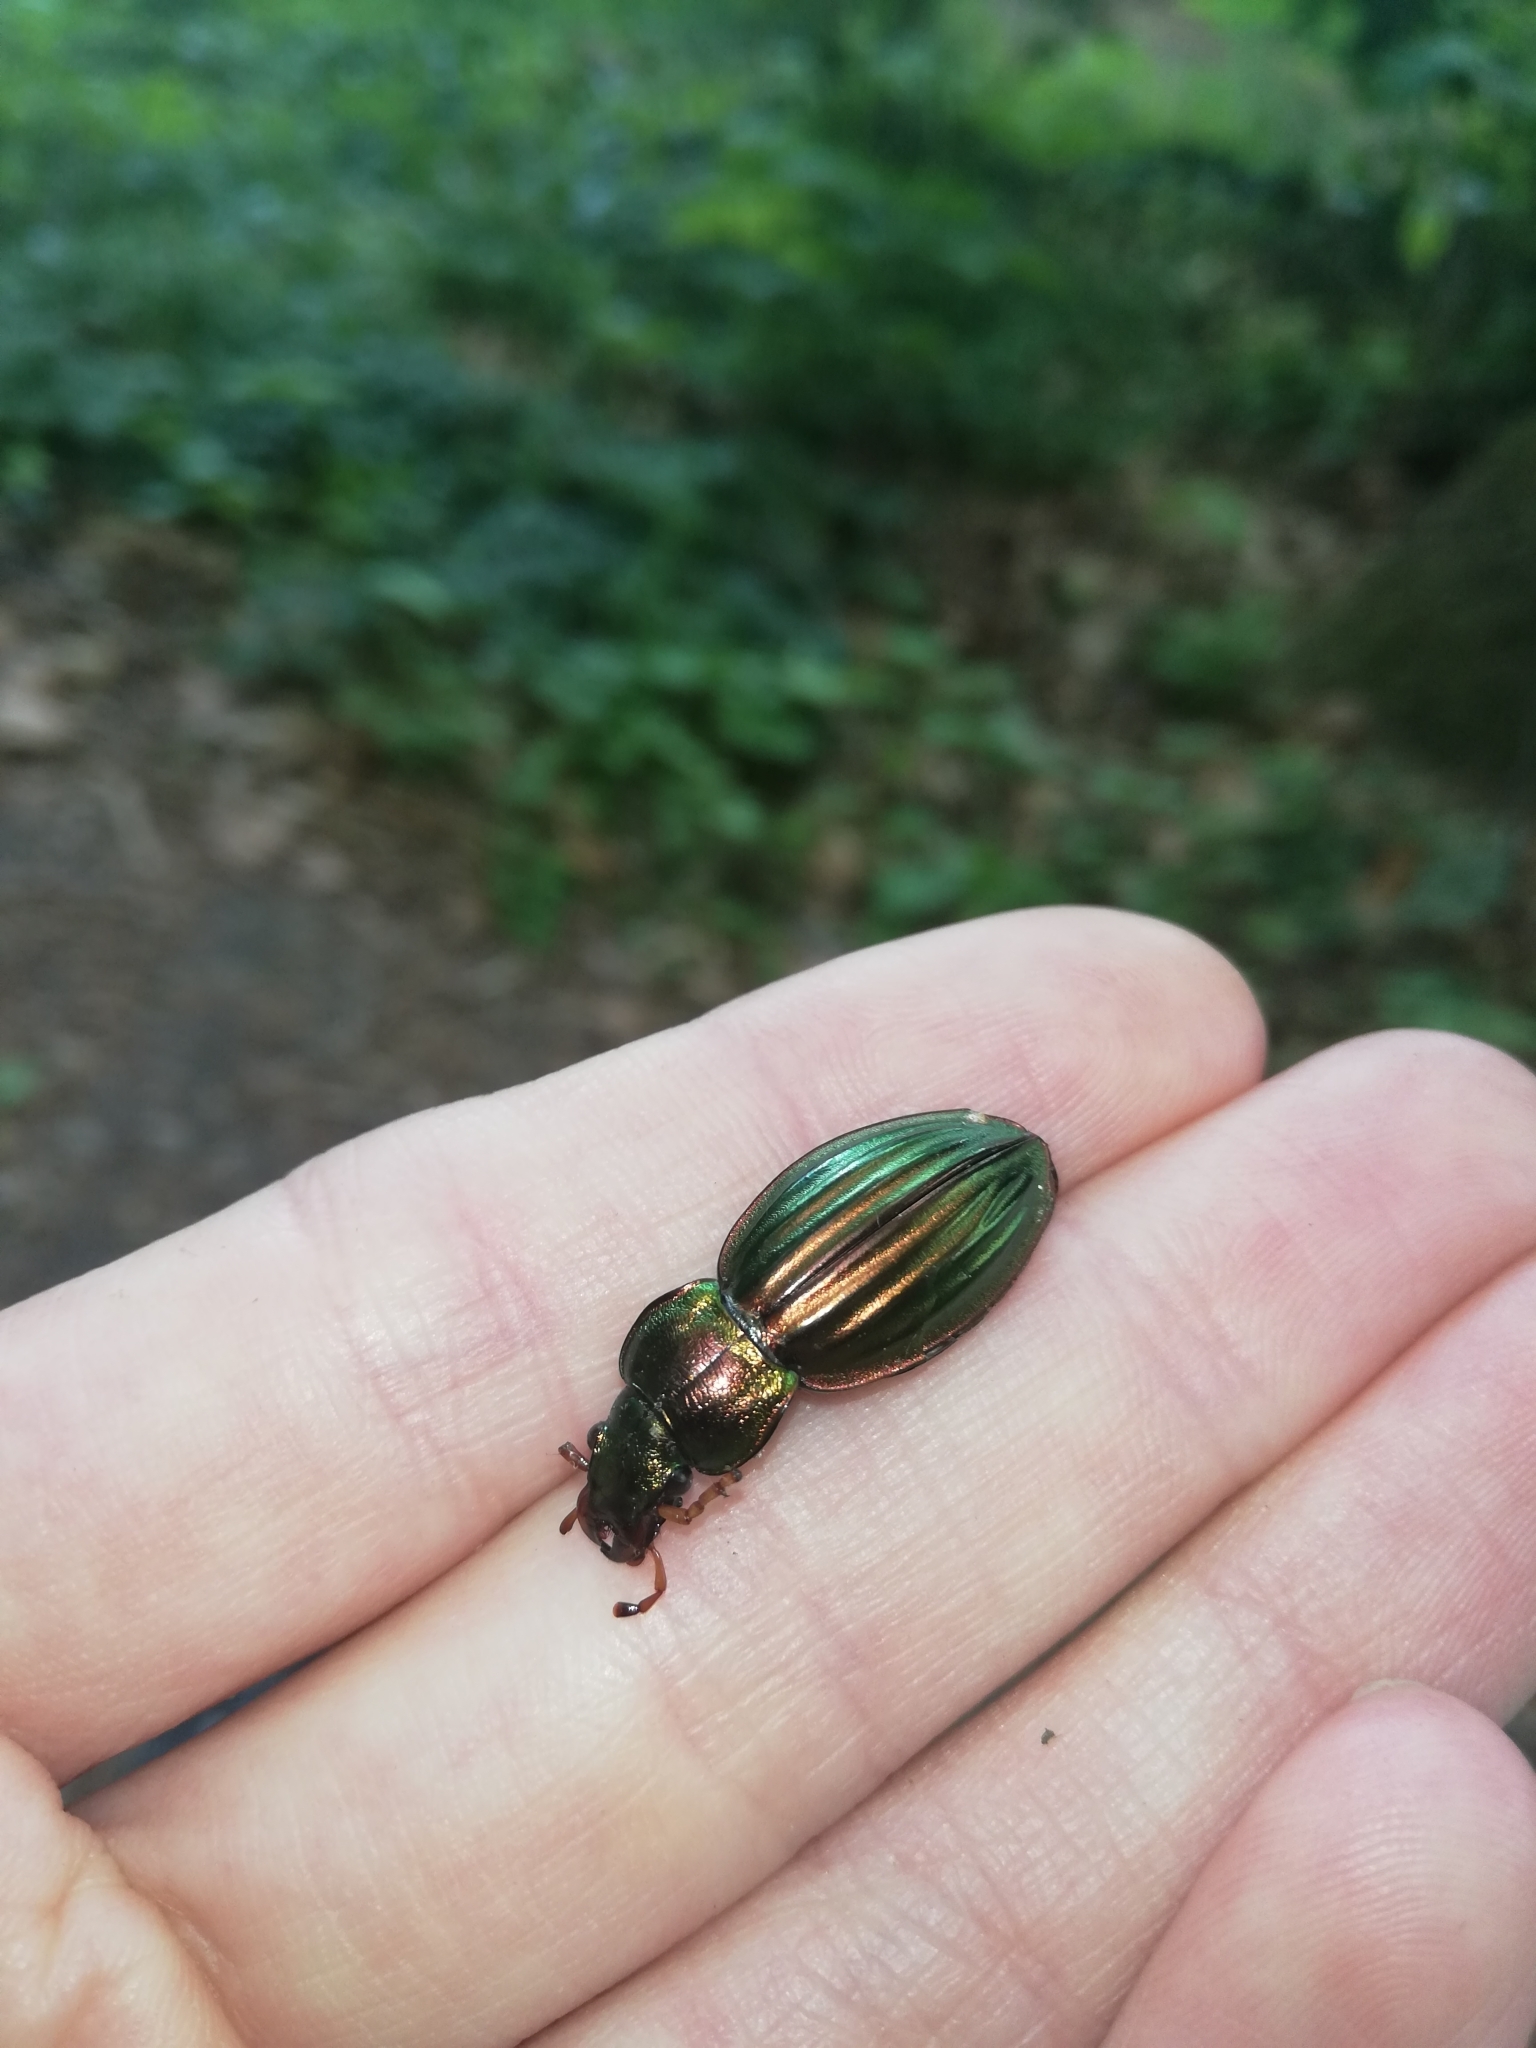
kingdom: Animalia
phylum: Arthropoda
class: Insecta
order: Coleoptera
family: Carabidae
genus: Carabus
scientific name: Carabus auratus
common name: Golden ground beetle
